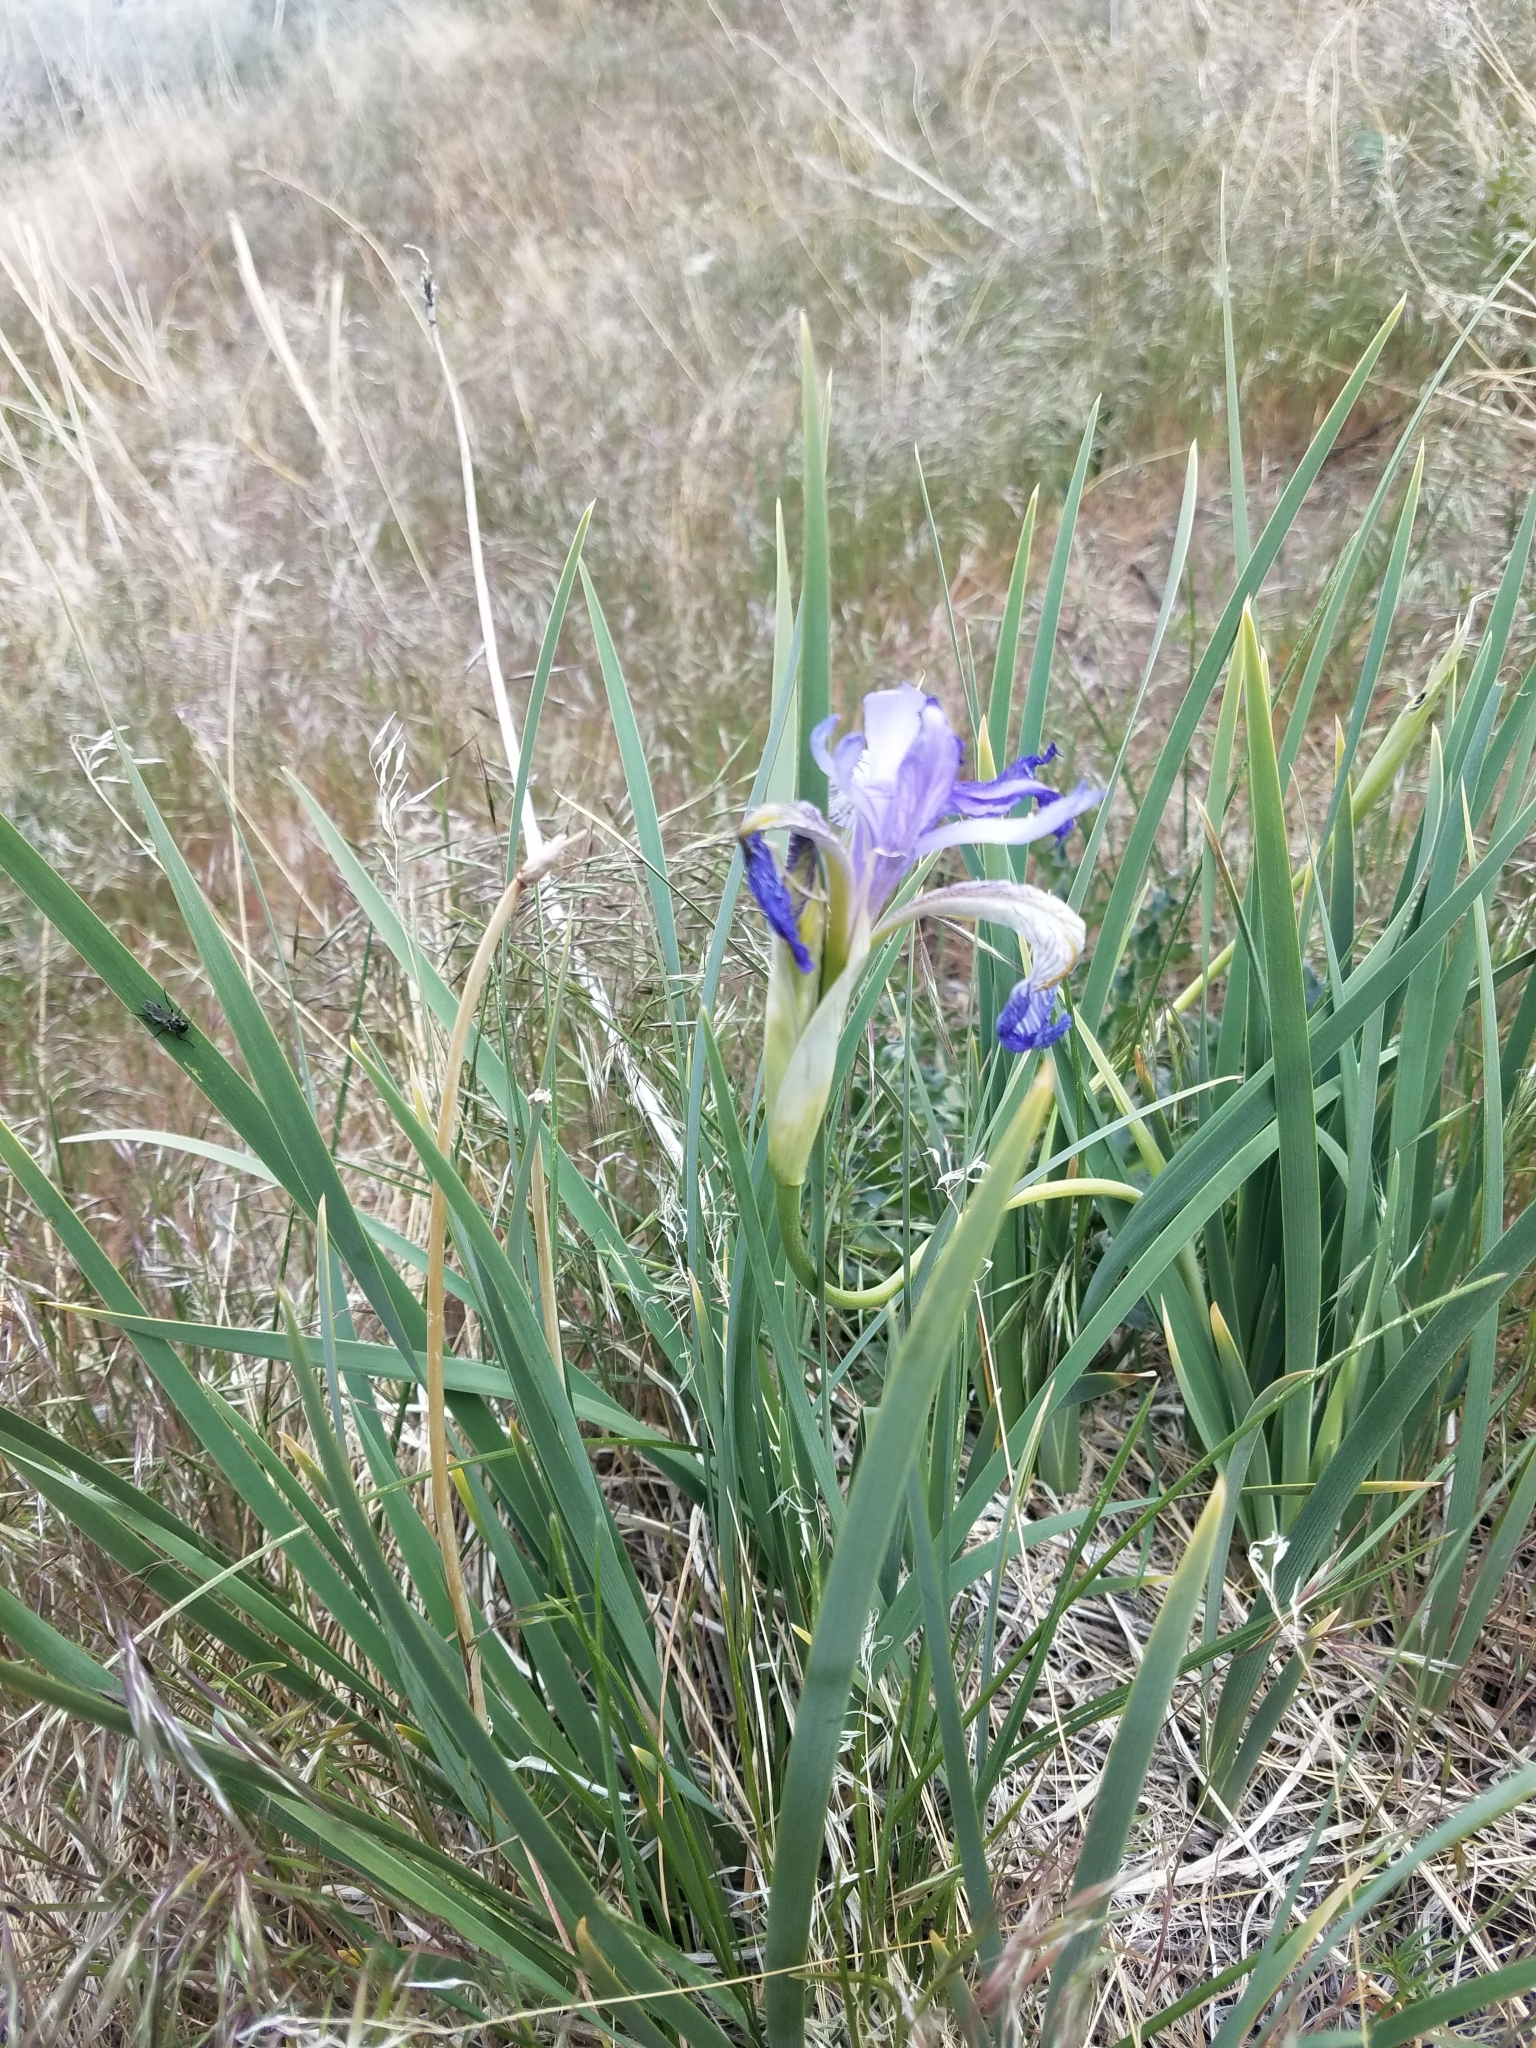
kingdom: Plantae
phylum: Tracheophyta
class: Liliopsida
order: Asparagales
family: Iridaceae
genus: Iris
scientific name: Iris missouriensis
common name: Rocky mountain iris
